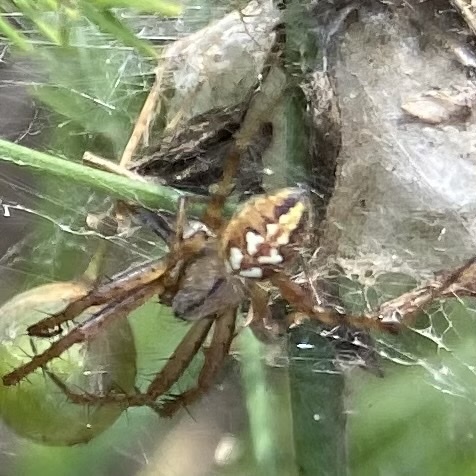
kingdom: Animalia
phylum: Arthropoda
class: Arachnida
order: Araneae
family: Araneidae
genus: Neoscona
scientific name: Neoscona adianta
